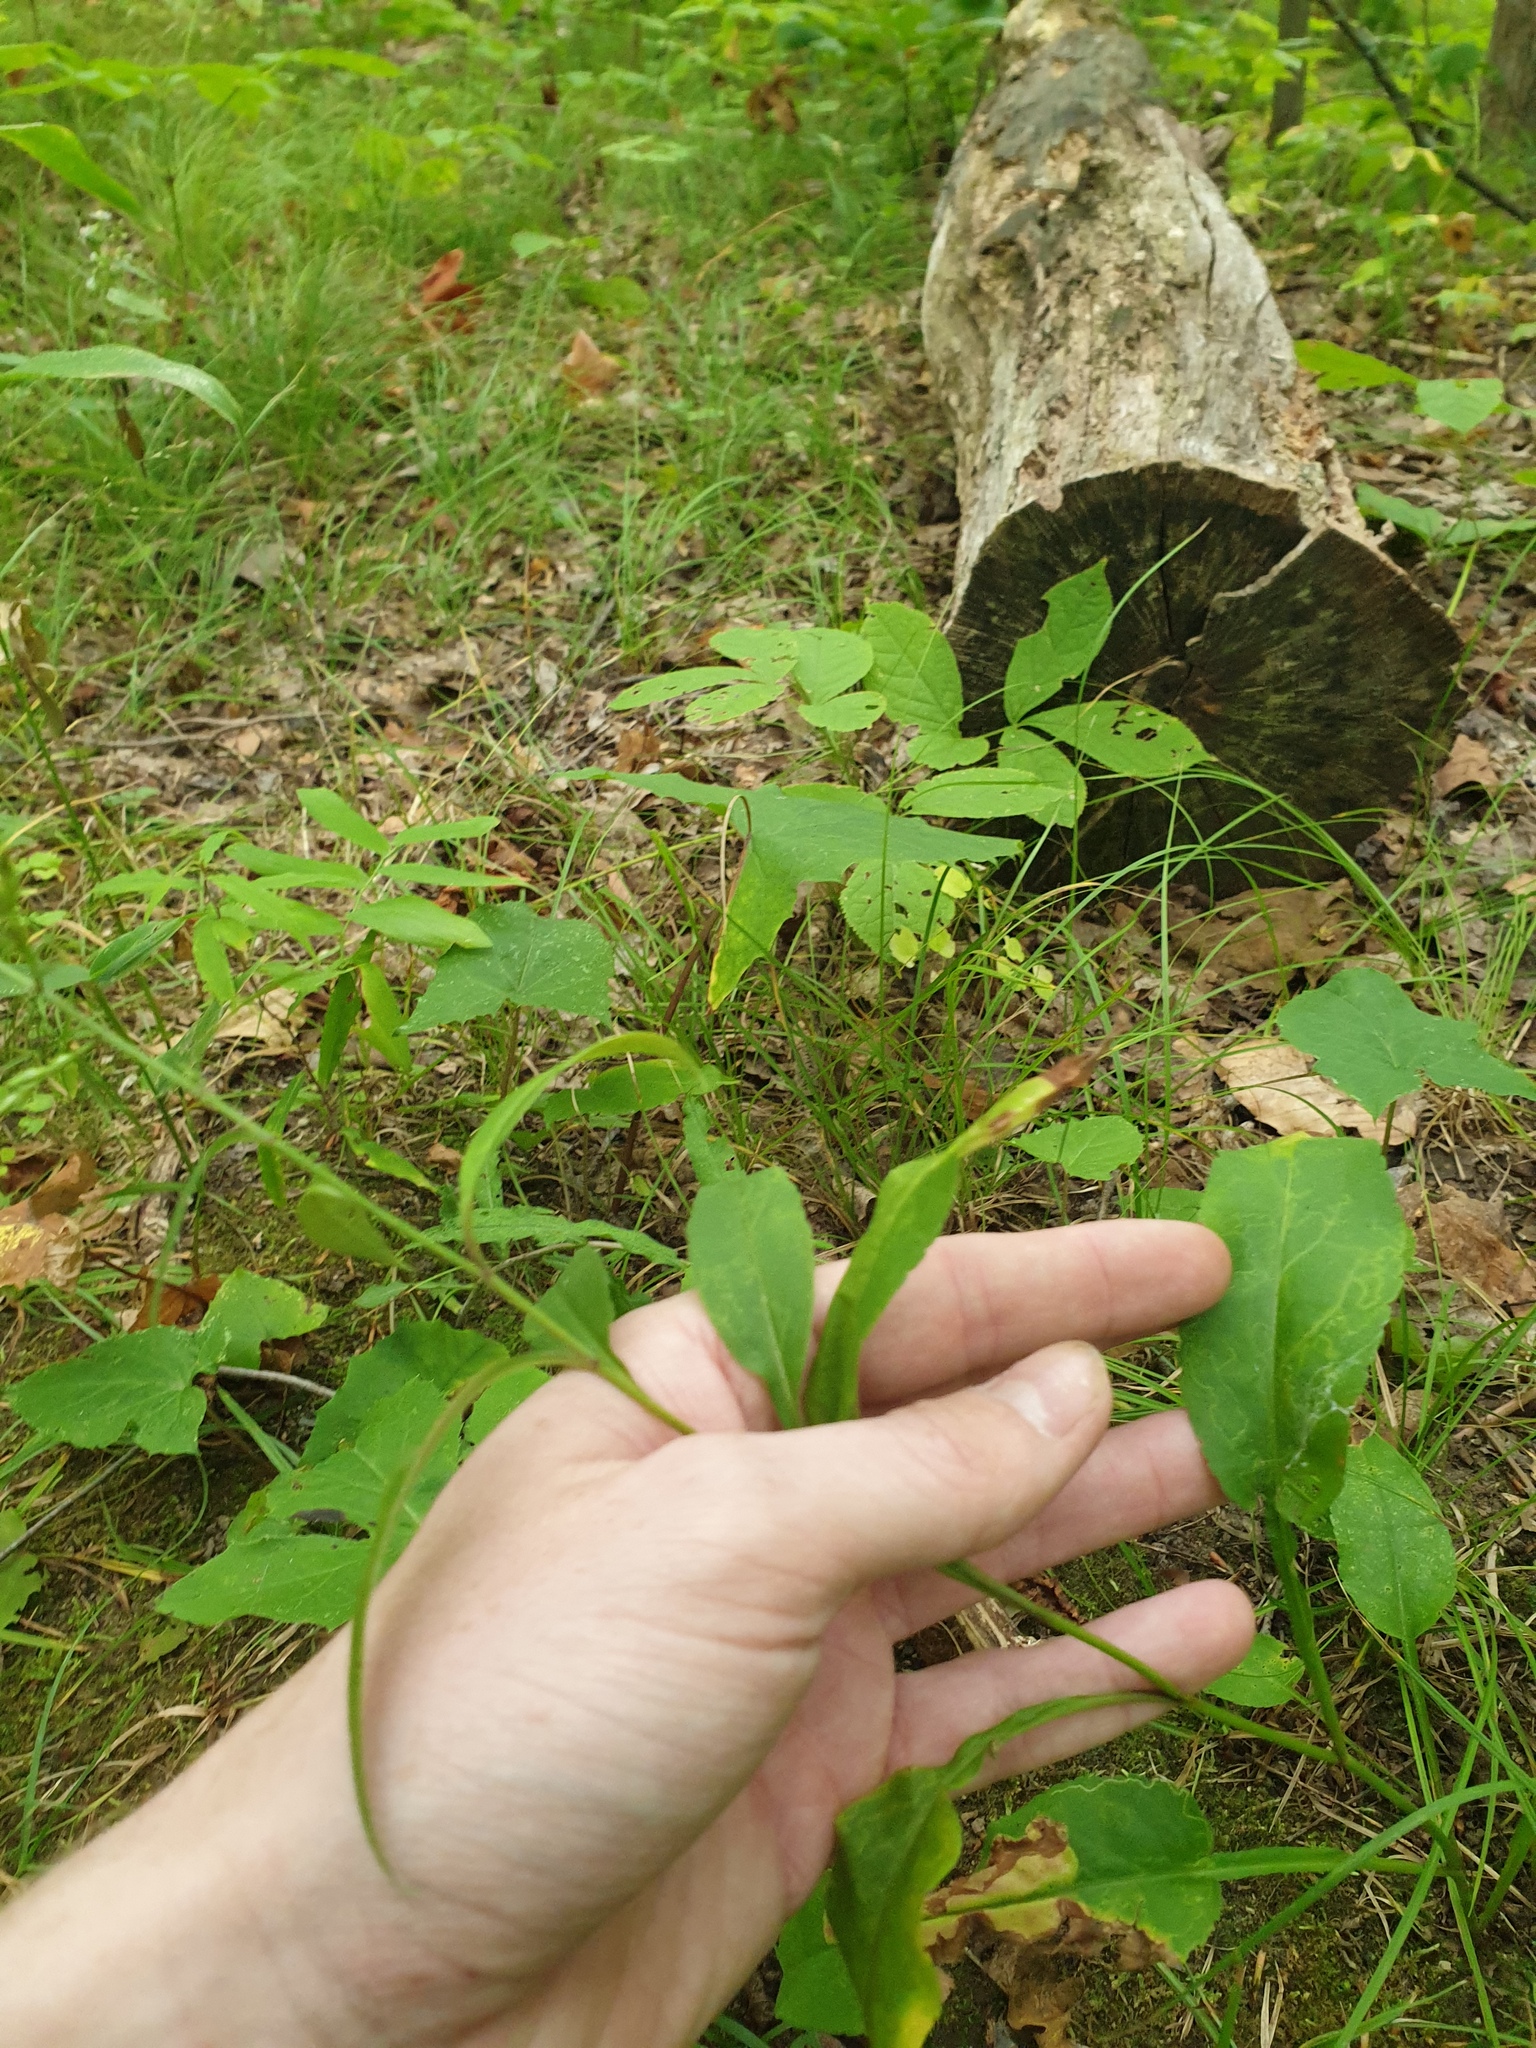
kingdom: Plantae
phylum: Tracheophyta
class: Magnoliopsida
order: Asterales
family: Asteraceae
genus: Symphyotrichum
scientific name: Symphyotrichum urophyllum
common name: Arrow-leaved aster
